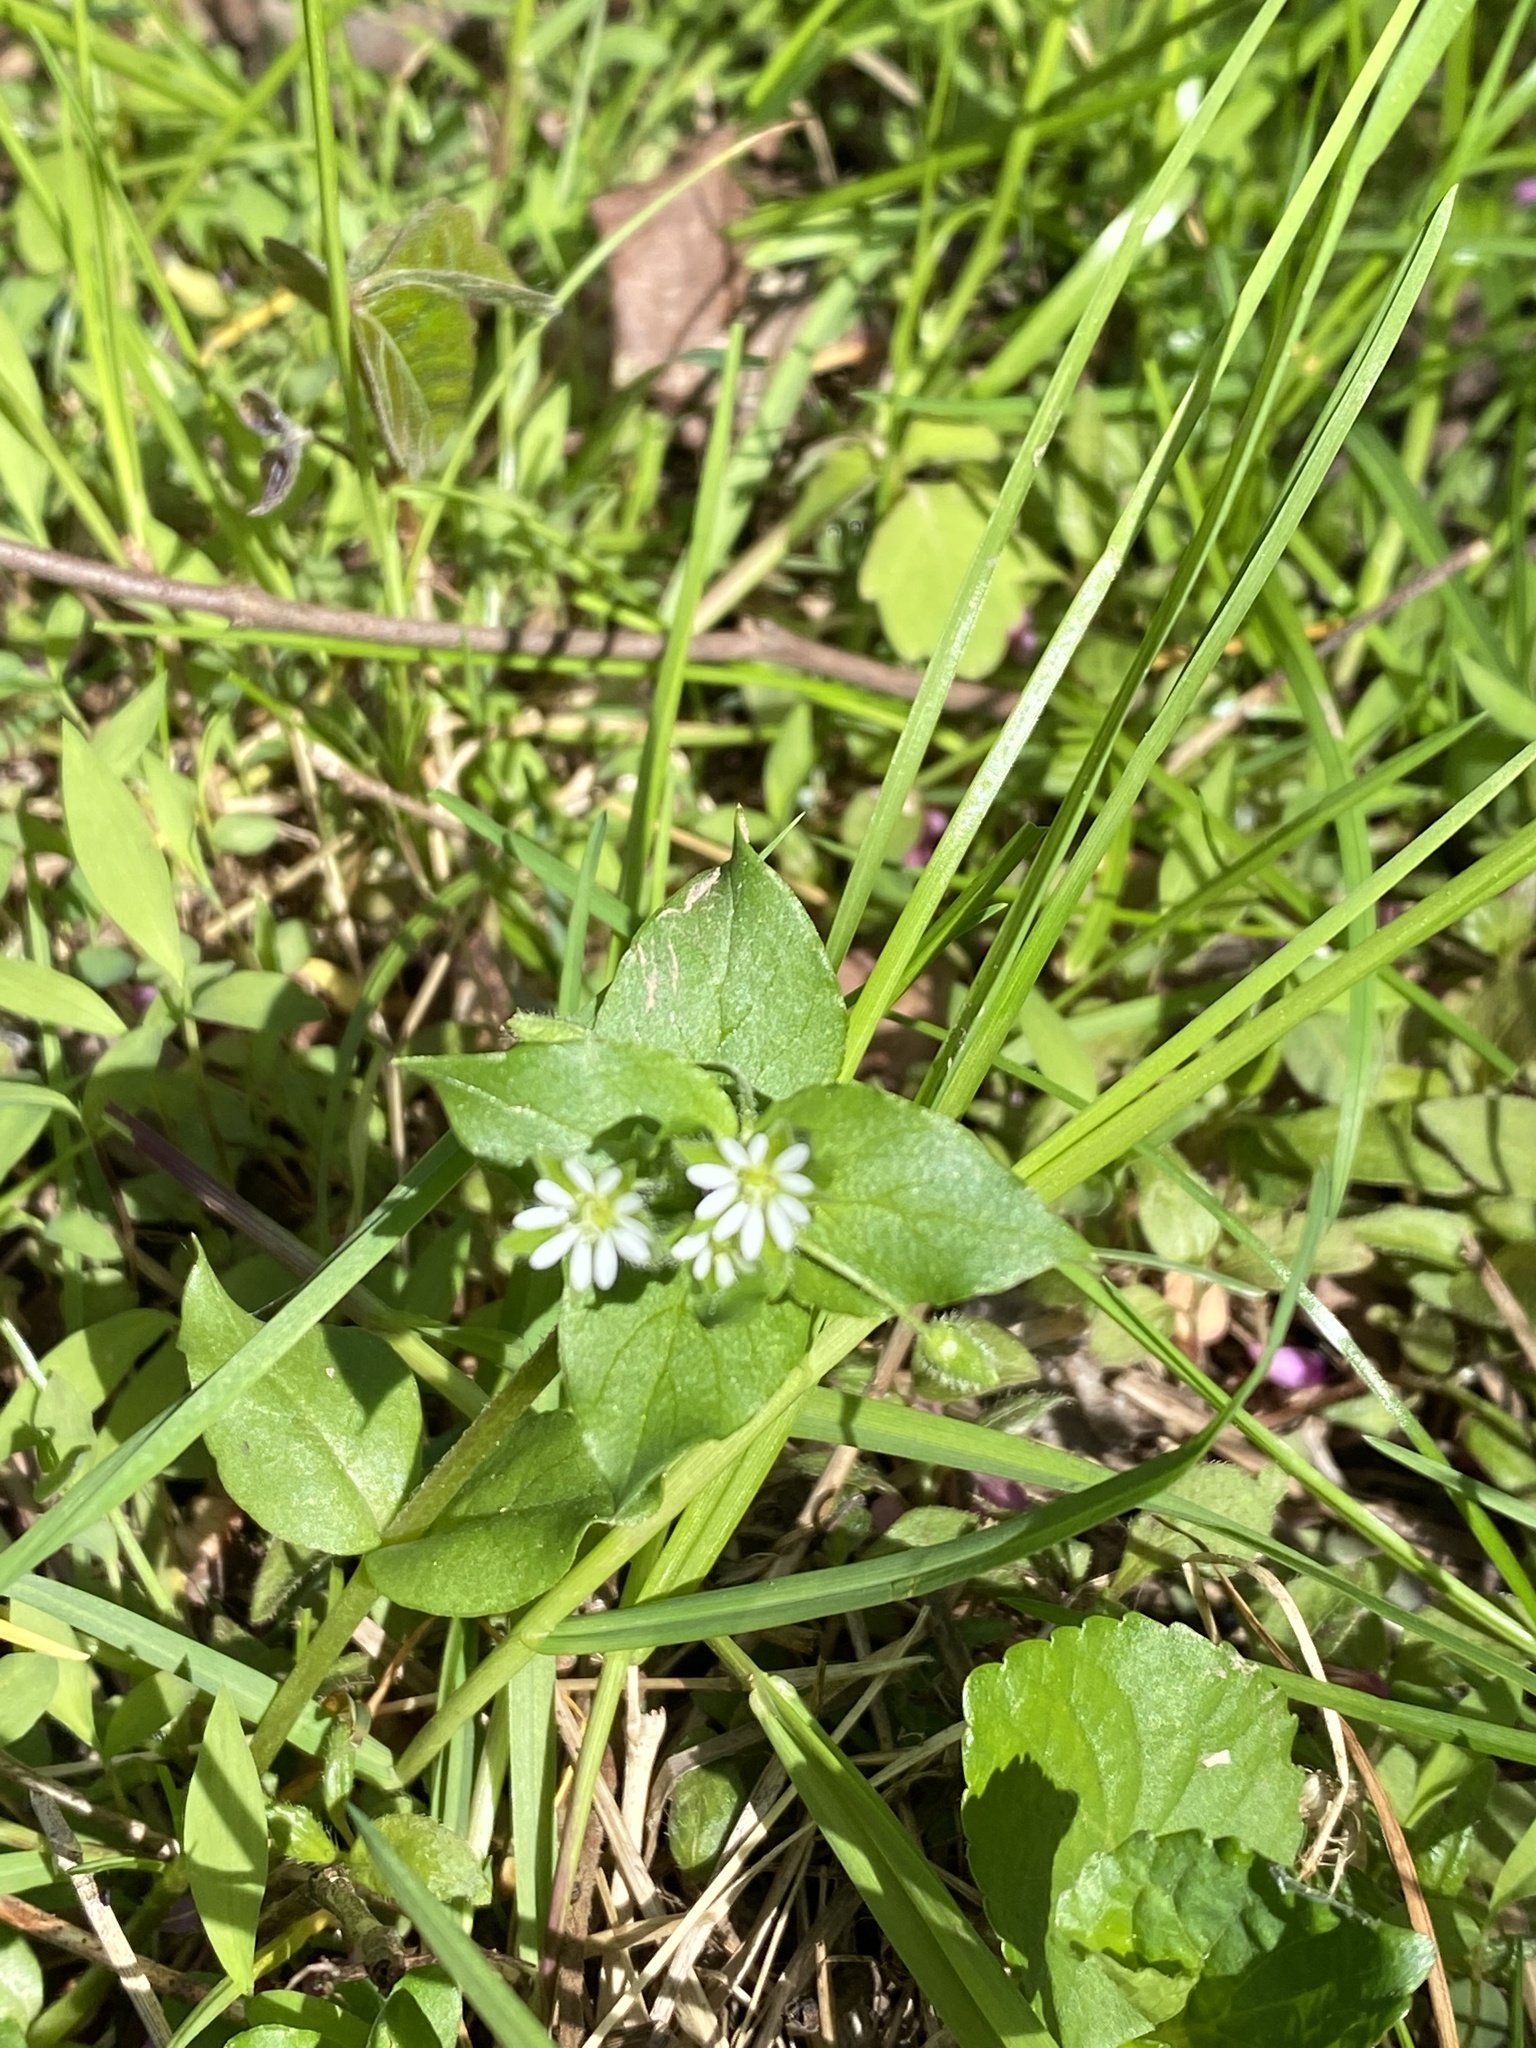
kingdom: Plantae
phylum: Tracheophyta
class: Magnoliopsida
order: Caryophyllales
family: Caryophyllaceae
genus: Stellaria
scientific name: Stellaria media
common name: Common chickweed
